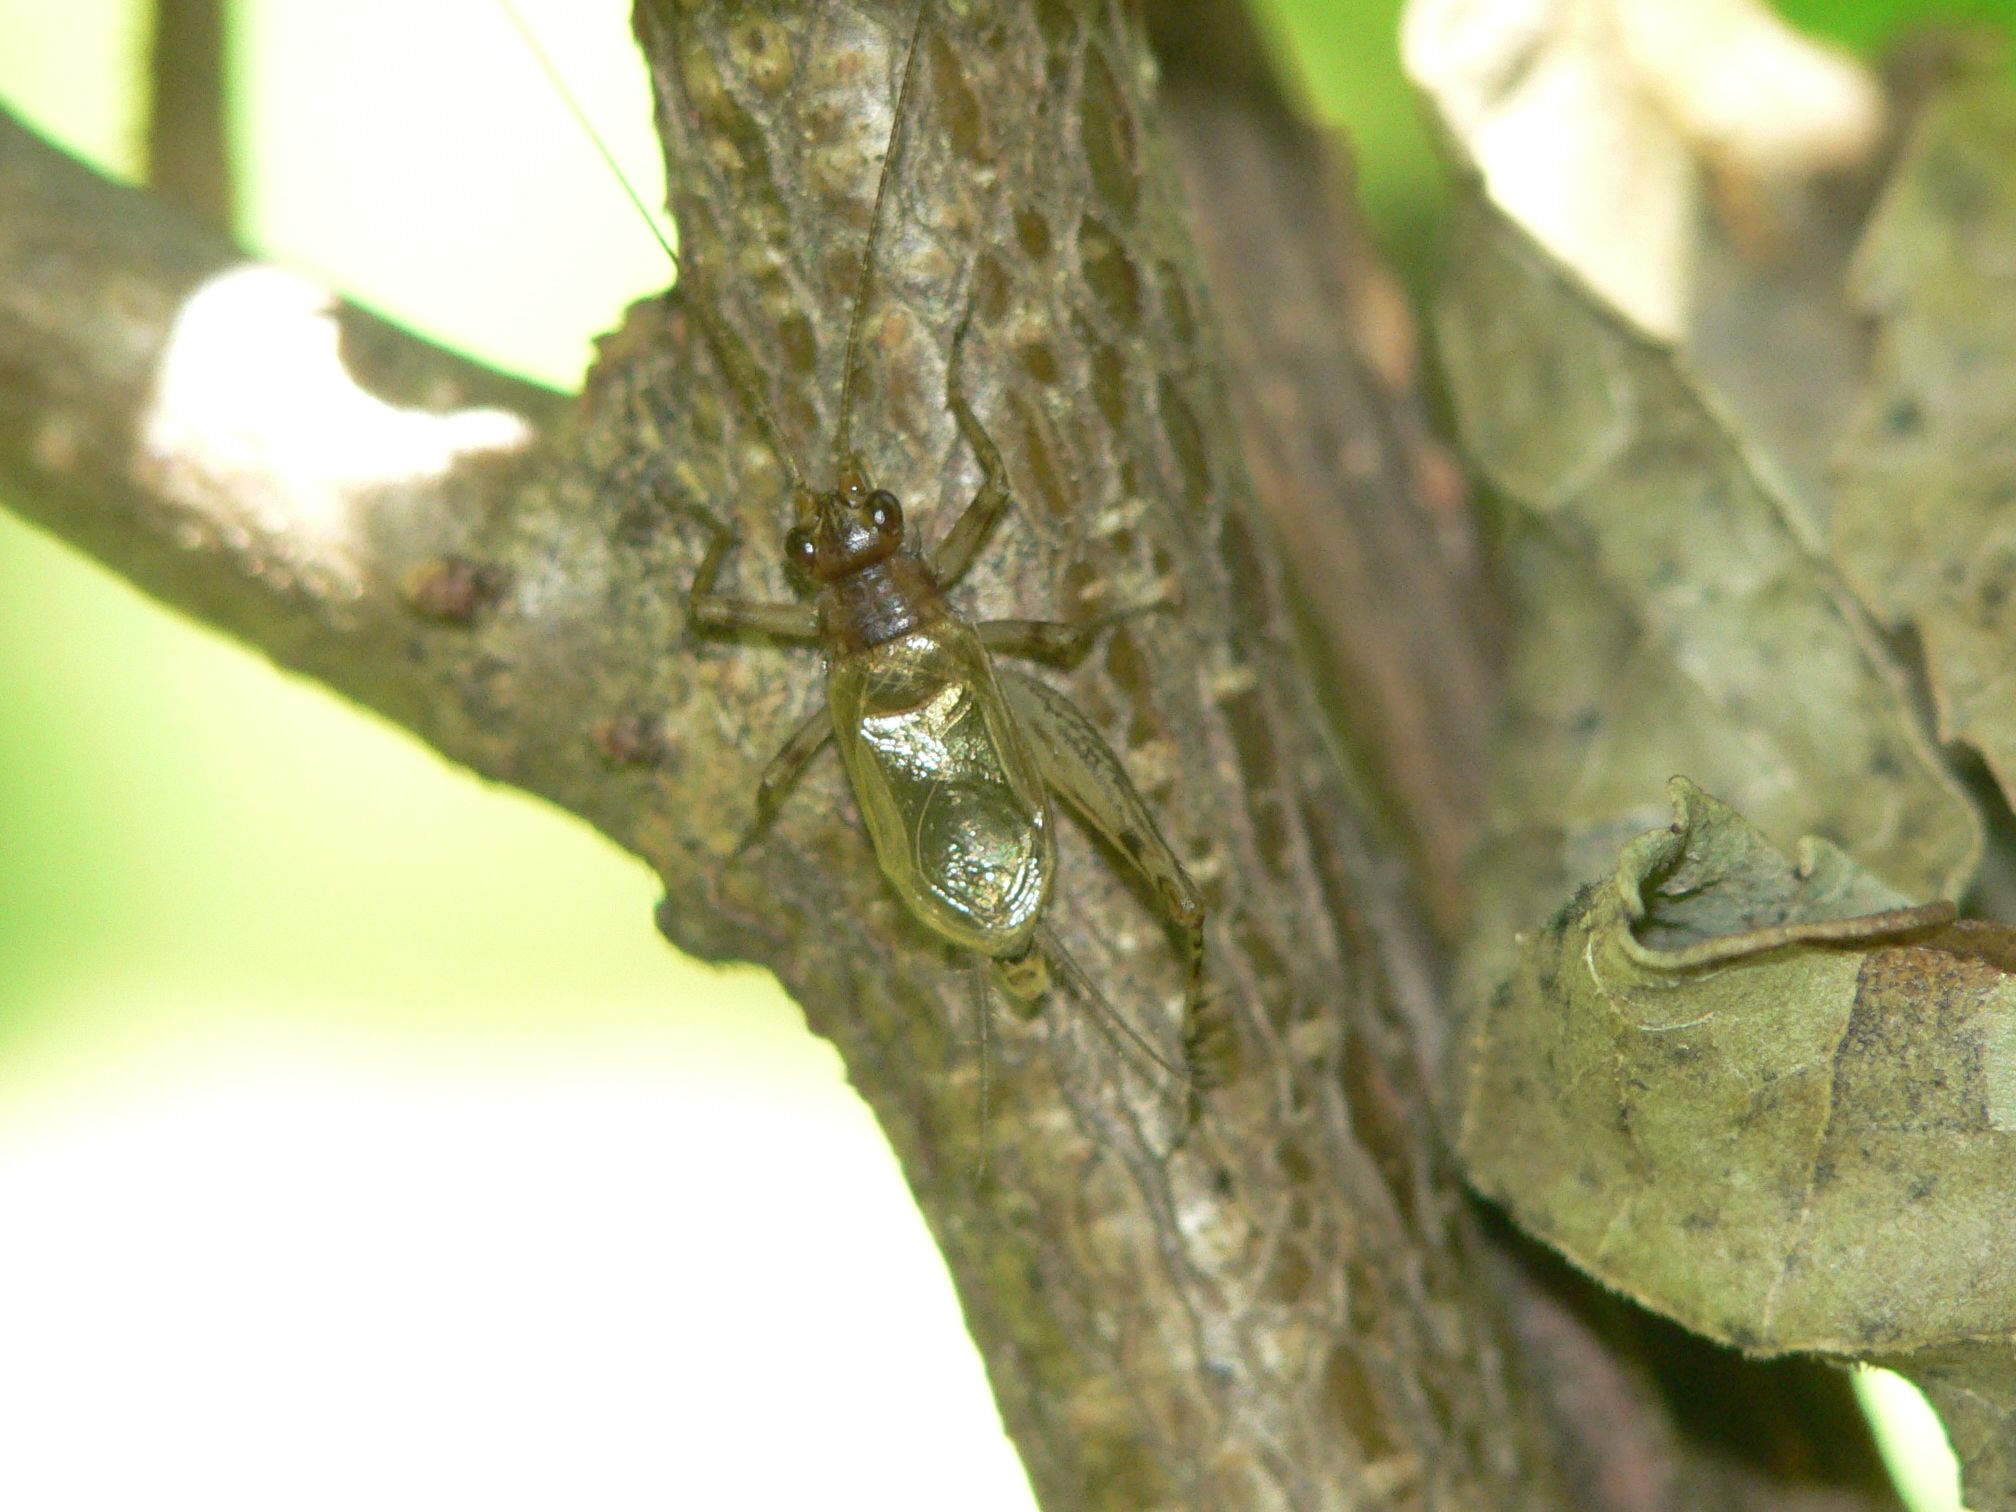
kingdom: Animalia
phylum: Arthropoda
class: Insecta
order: Orthoptera
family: Trigonidiidae
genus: Anaxipha
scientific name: Anaxipha exigua
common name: Say's bush cricket
